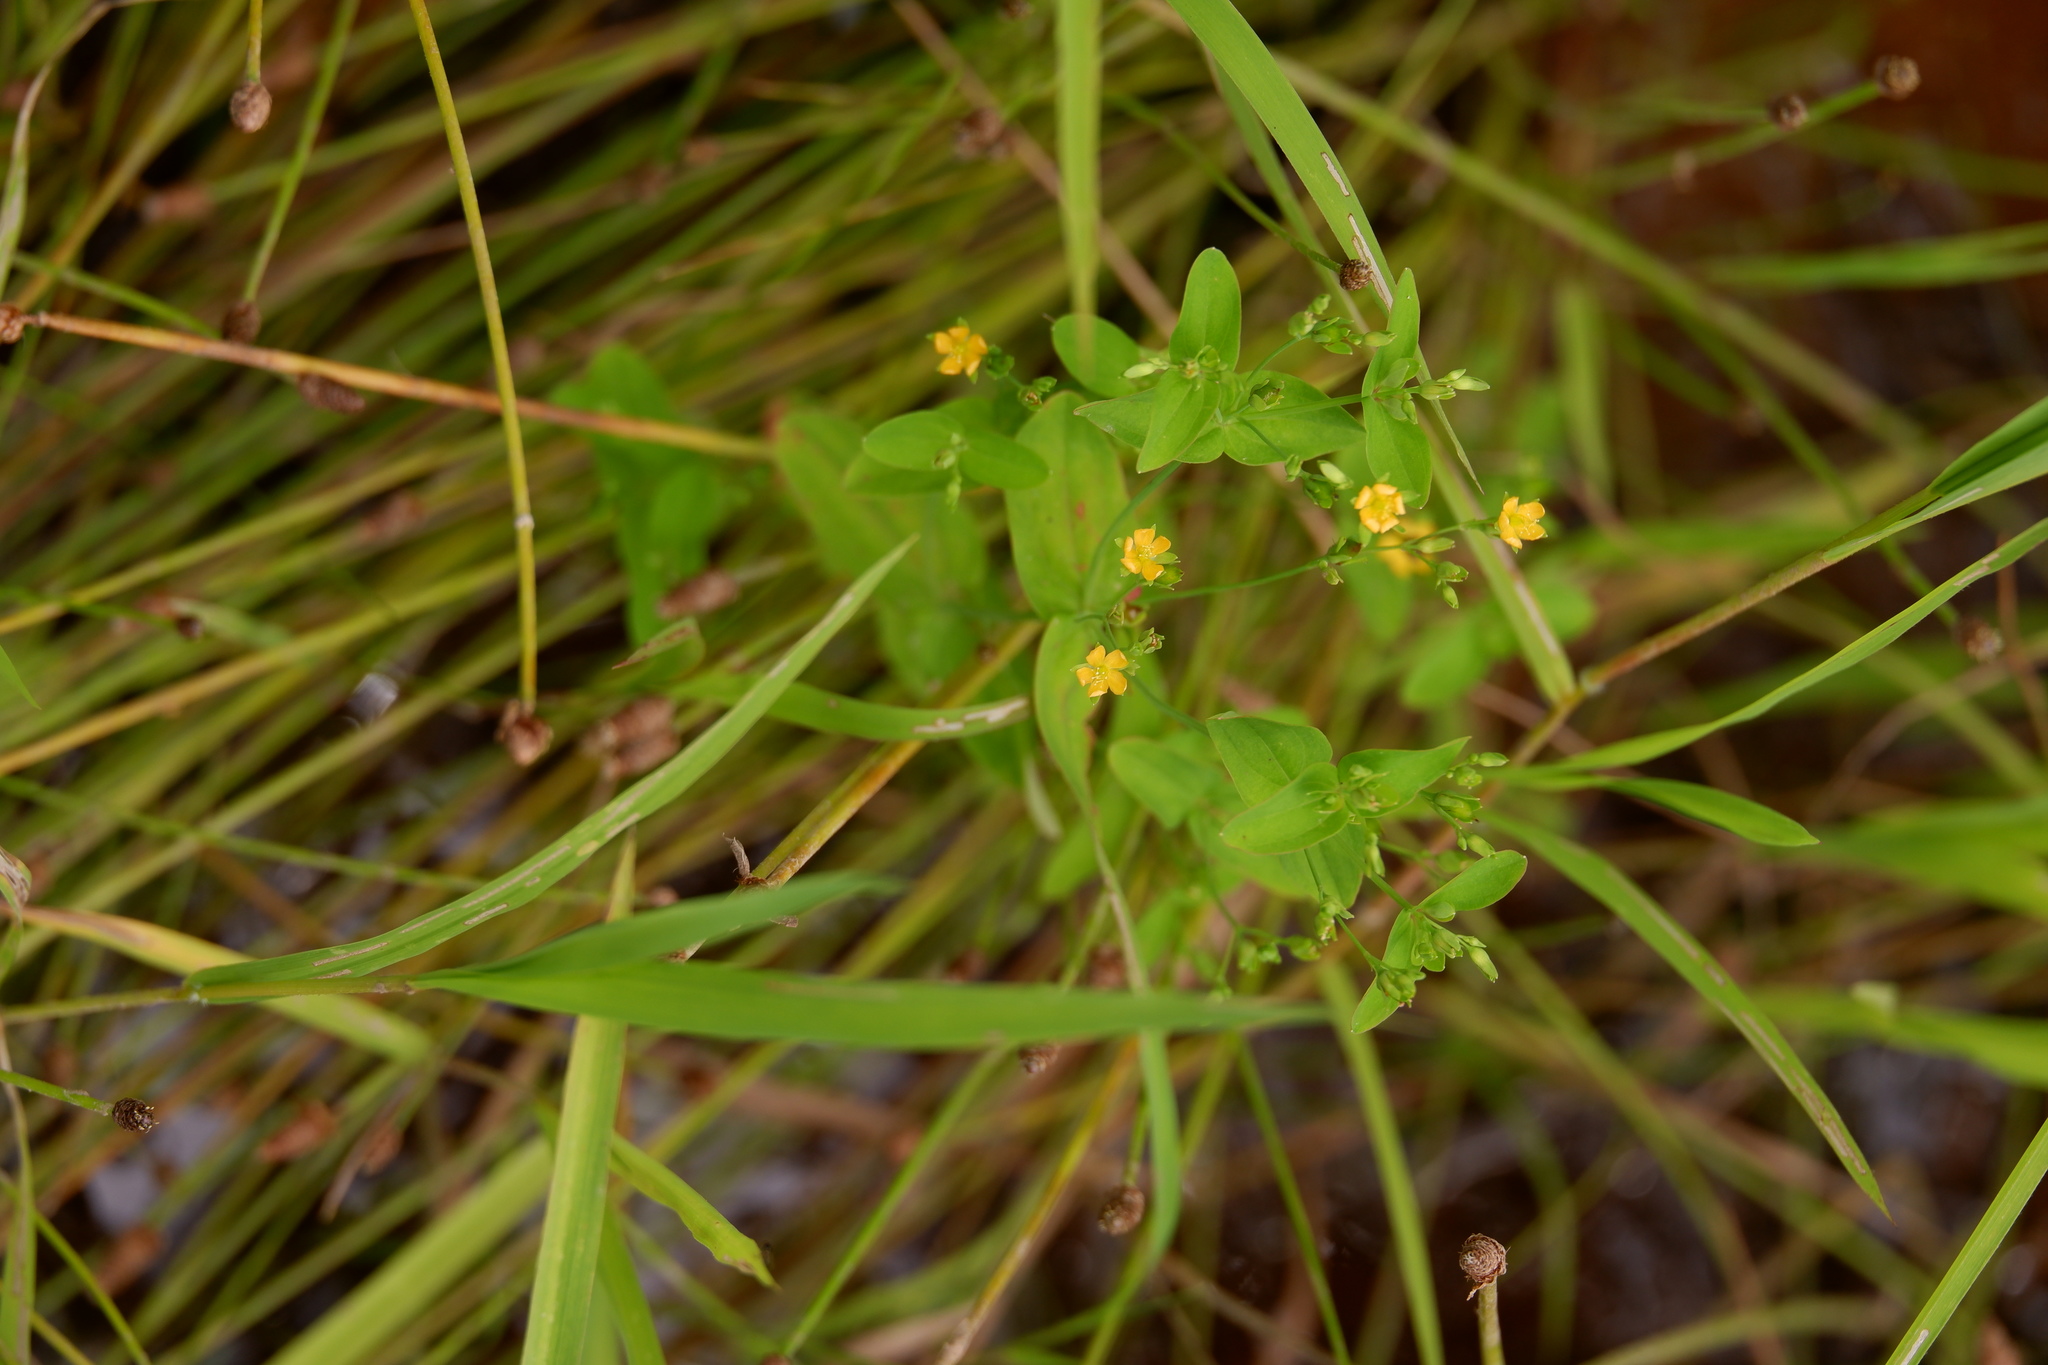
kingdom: Plantae
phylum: Tracheophyta
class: Magnoliopsida
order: Malpighiales
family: Hypericaceae
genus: Hypericum
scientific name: Hypericum mutilum
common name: Dwarf st. john's-wort
